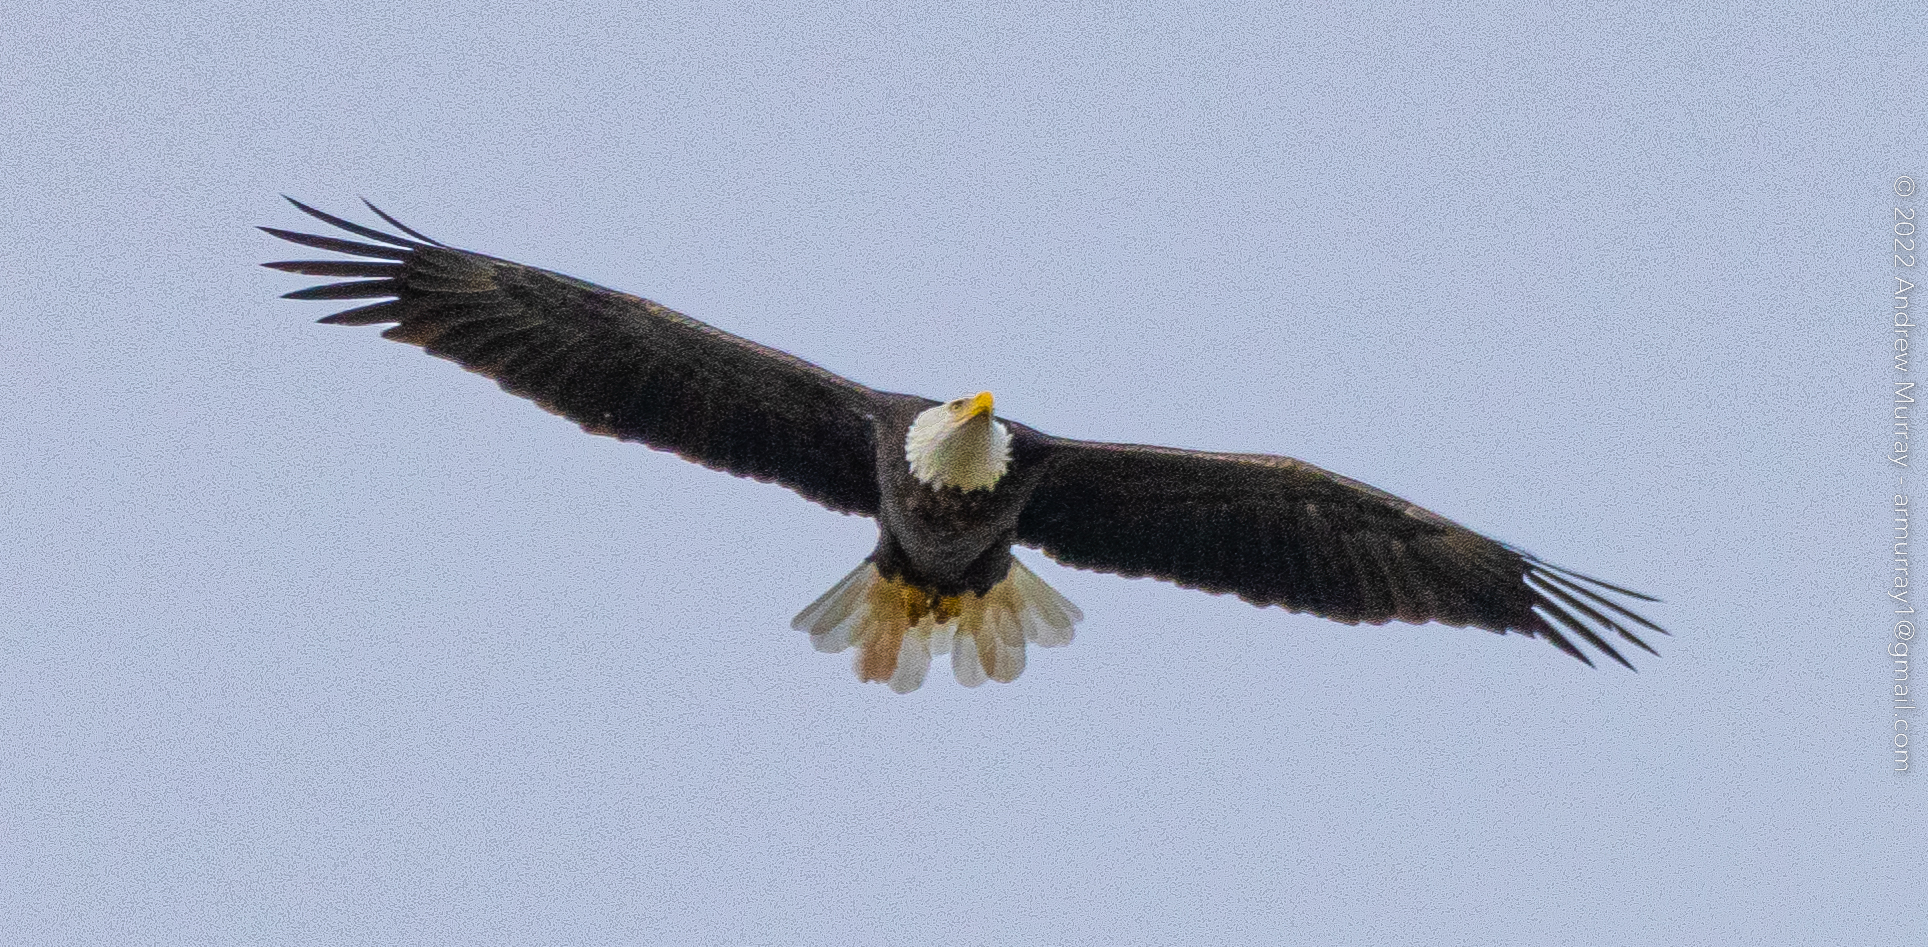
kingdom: Animalia
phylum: Chordata
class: Aves
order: Accipitriformes
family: Accipitridae
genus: Haliaeetus
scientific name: Haliaeetus leucocephalus
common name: Bald eagle
